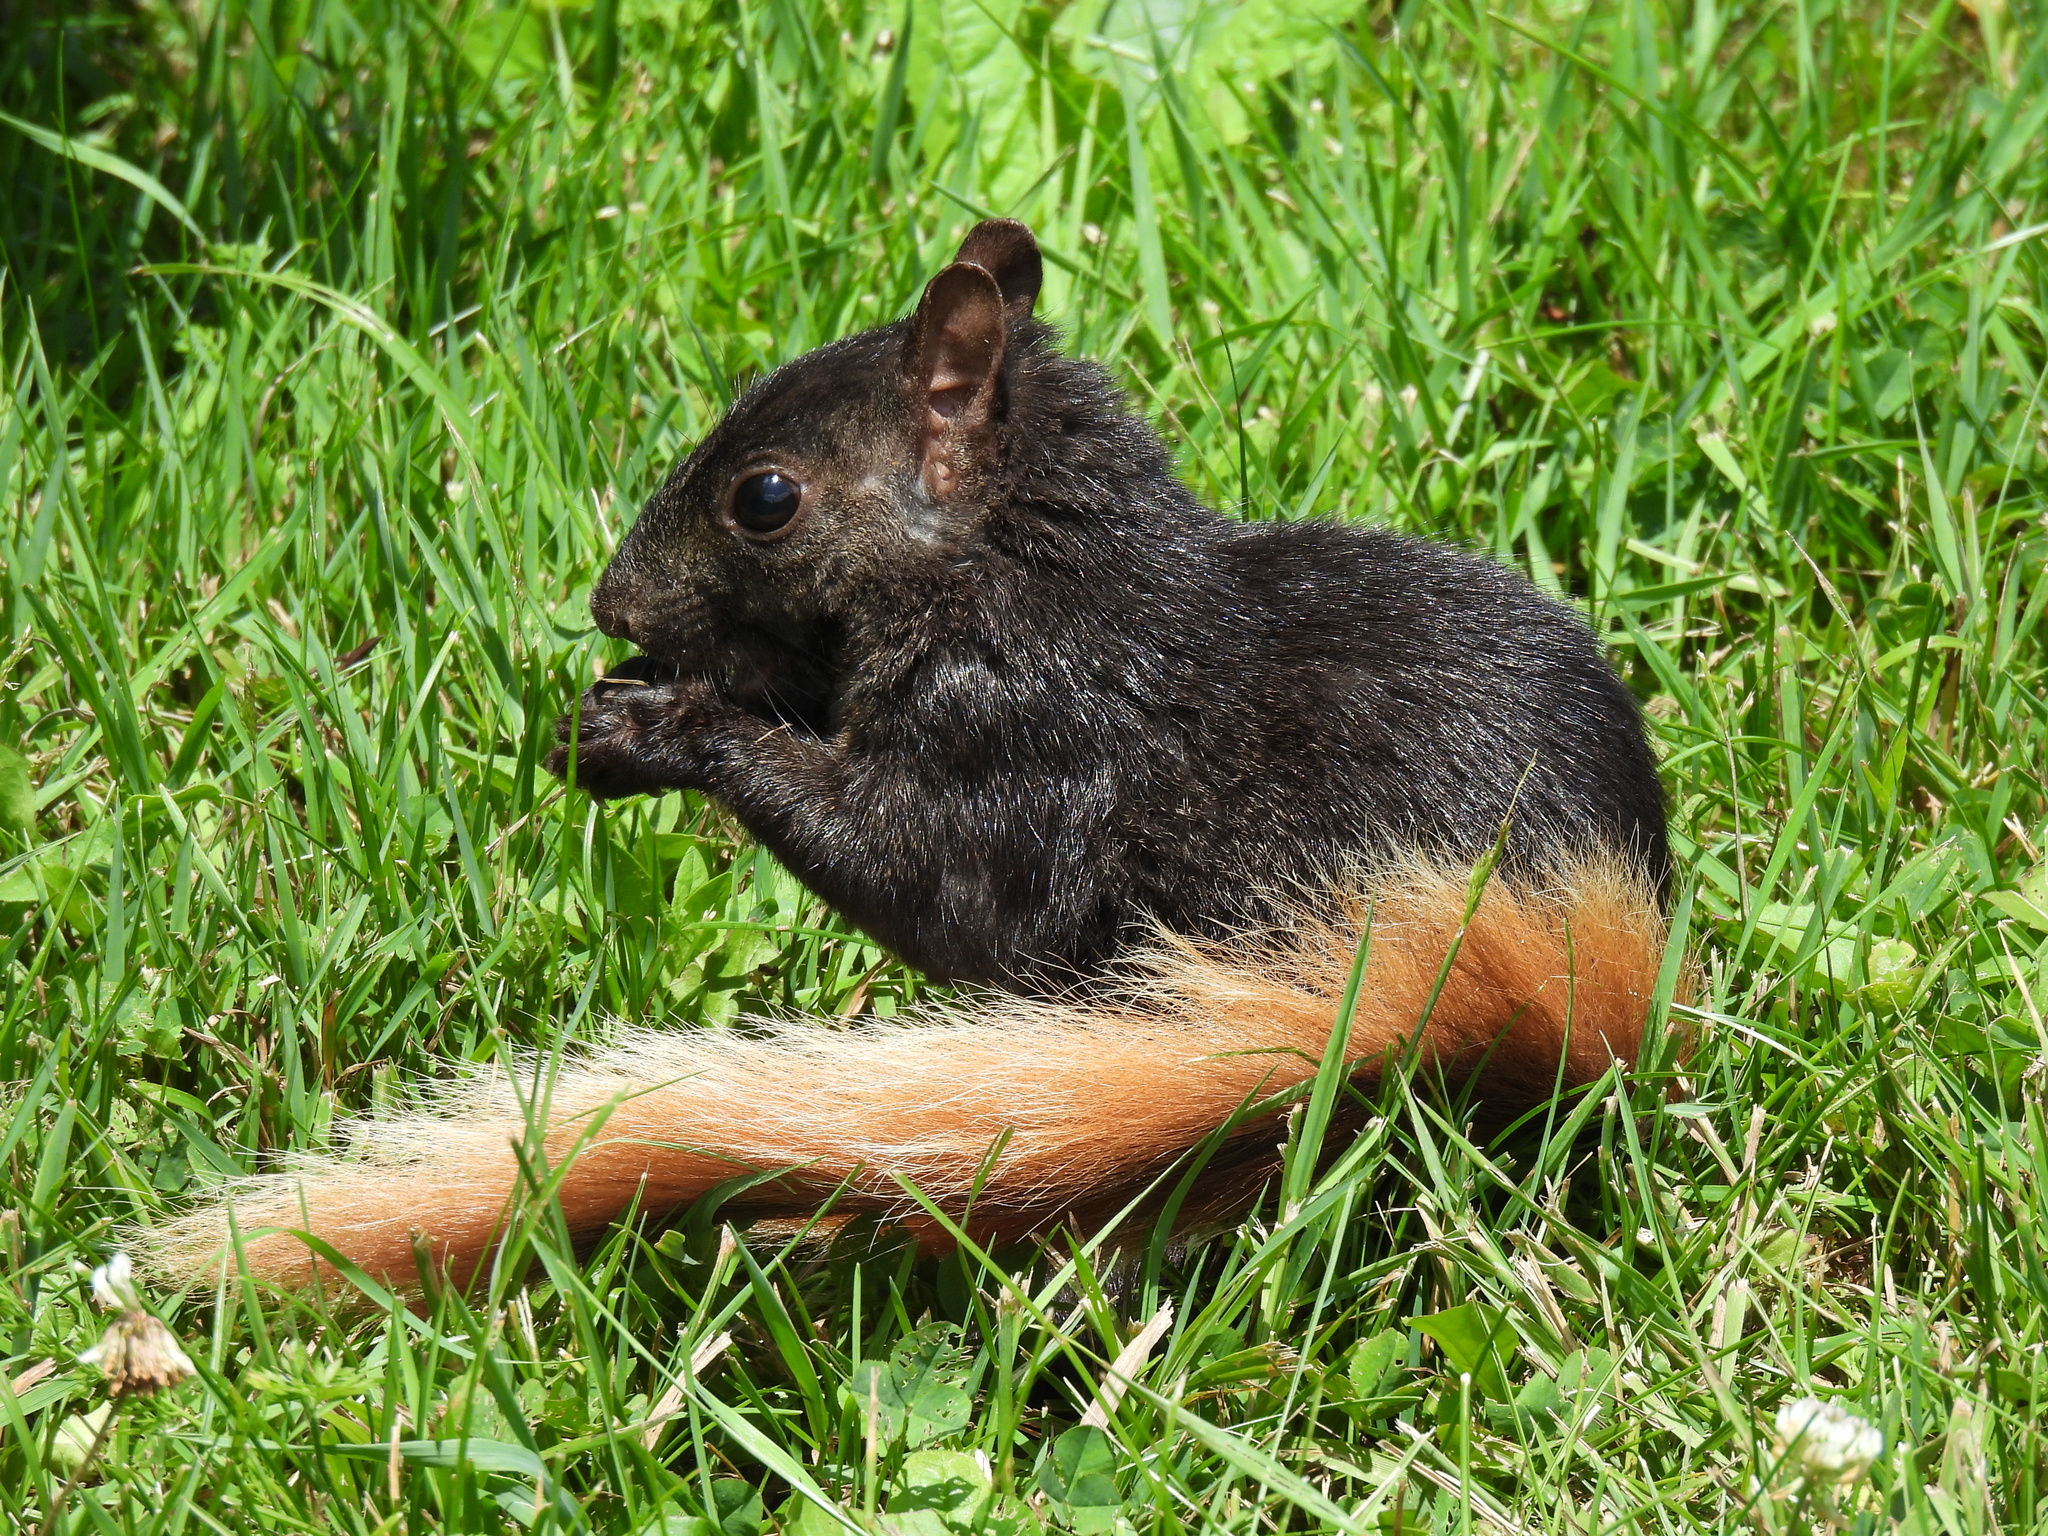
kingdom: Animalia
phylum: Chordata
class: Mammalia
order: Rodentia
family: Sciuridae
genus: Sciurus
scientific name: Sciurus carolinensis
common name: Eastern gray squirrel
